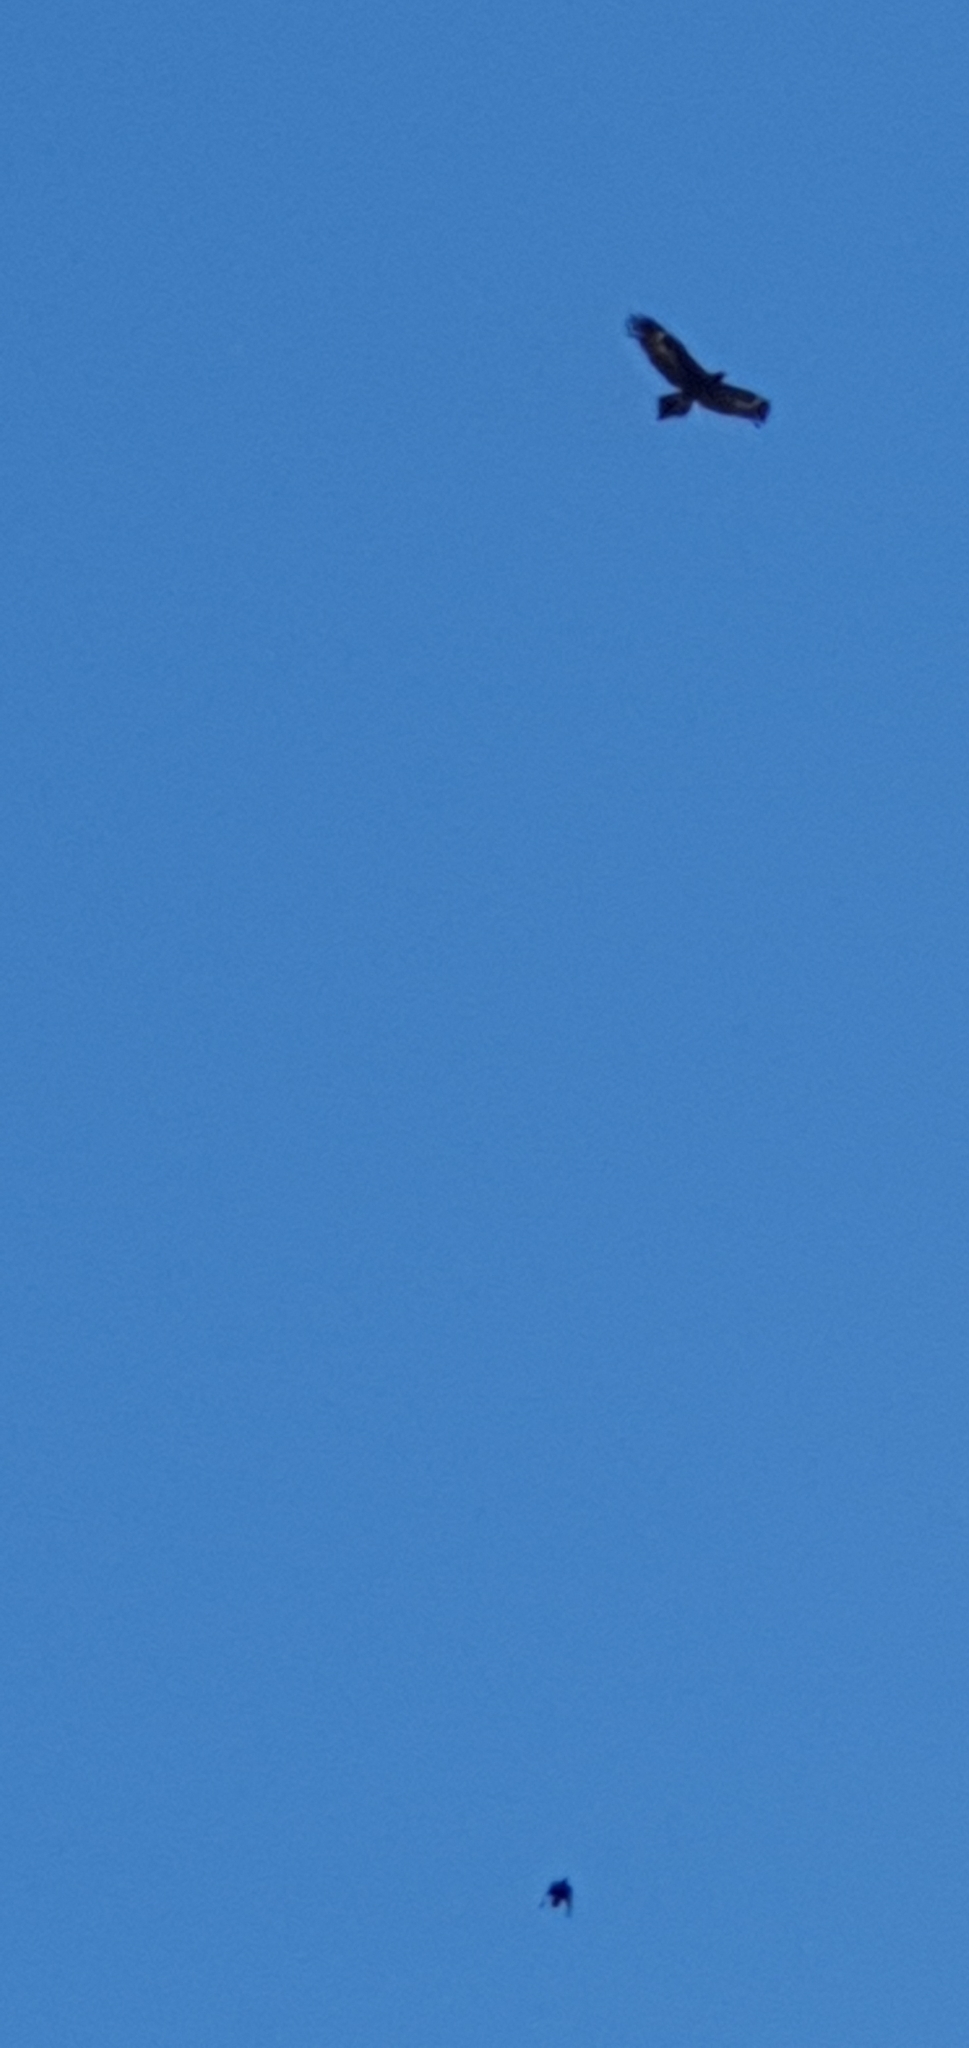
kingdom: Animalia
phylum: Chordata
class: Aves
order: Accipitriformes
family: Accipitridae
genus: Aquila
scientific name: Aquila audax
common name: Wedge-tailed eagle
